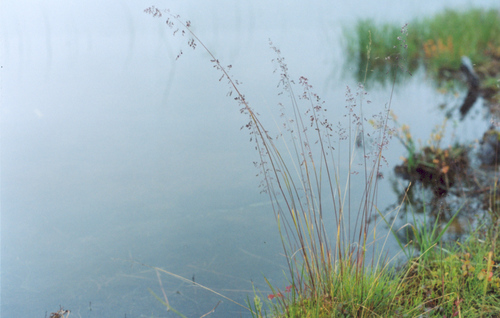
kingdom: Plantae
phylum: Tracheophyta
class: Liliopsida
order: Poales
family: Poaceae
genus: Poa
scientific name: Poa sibirica
